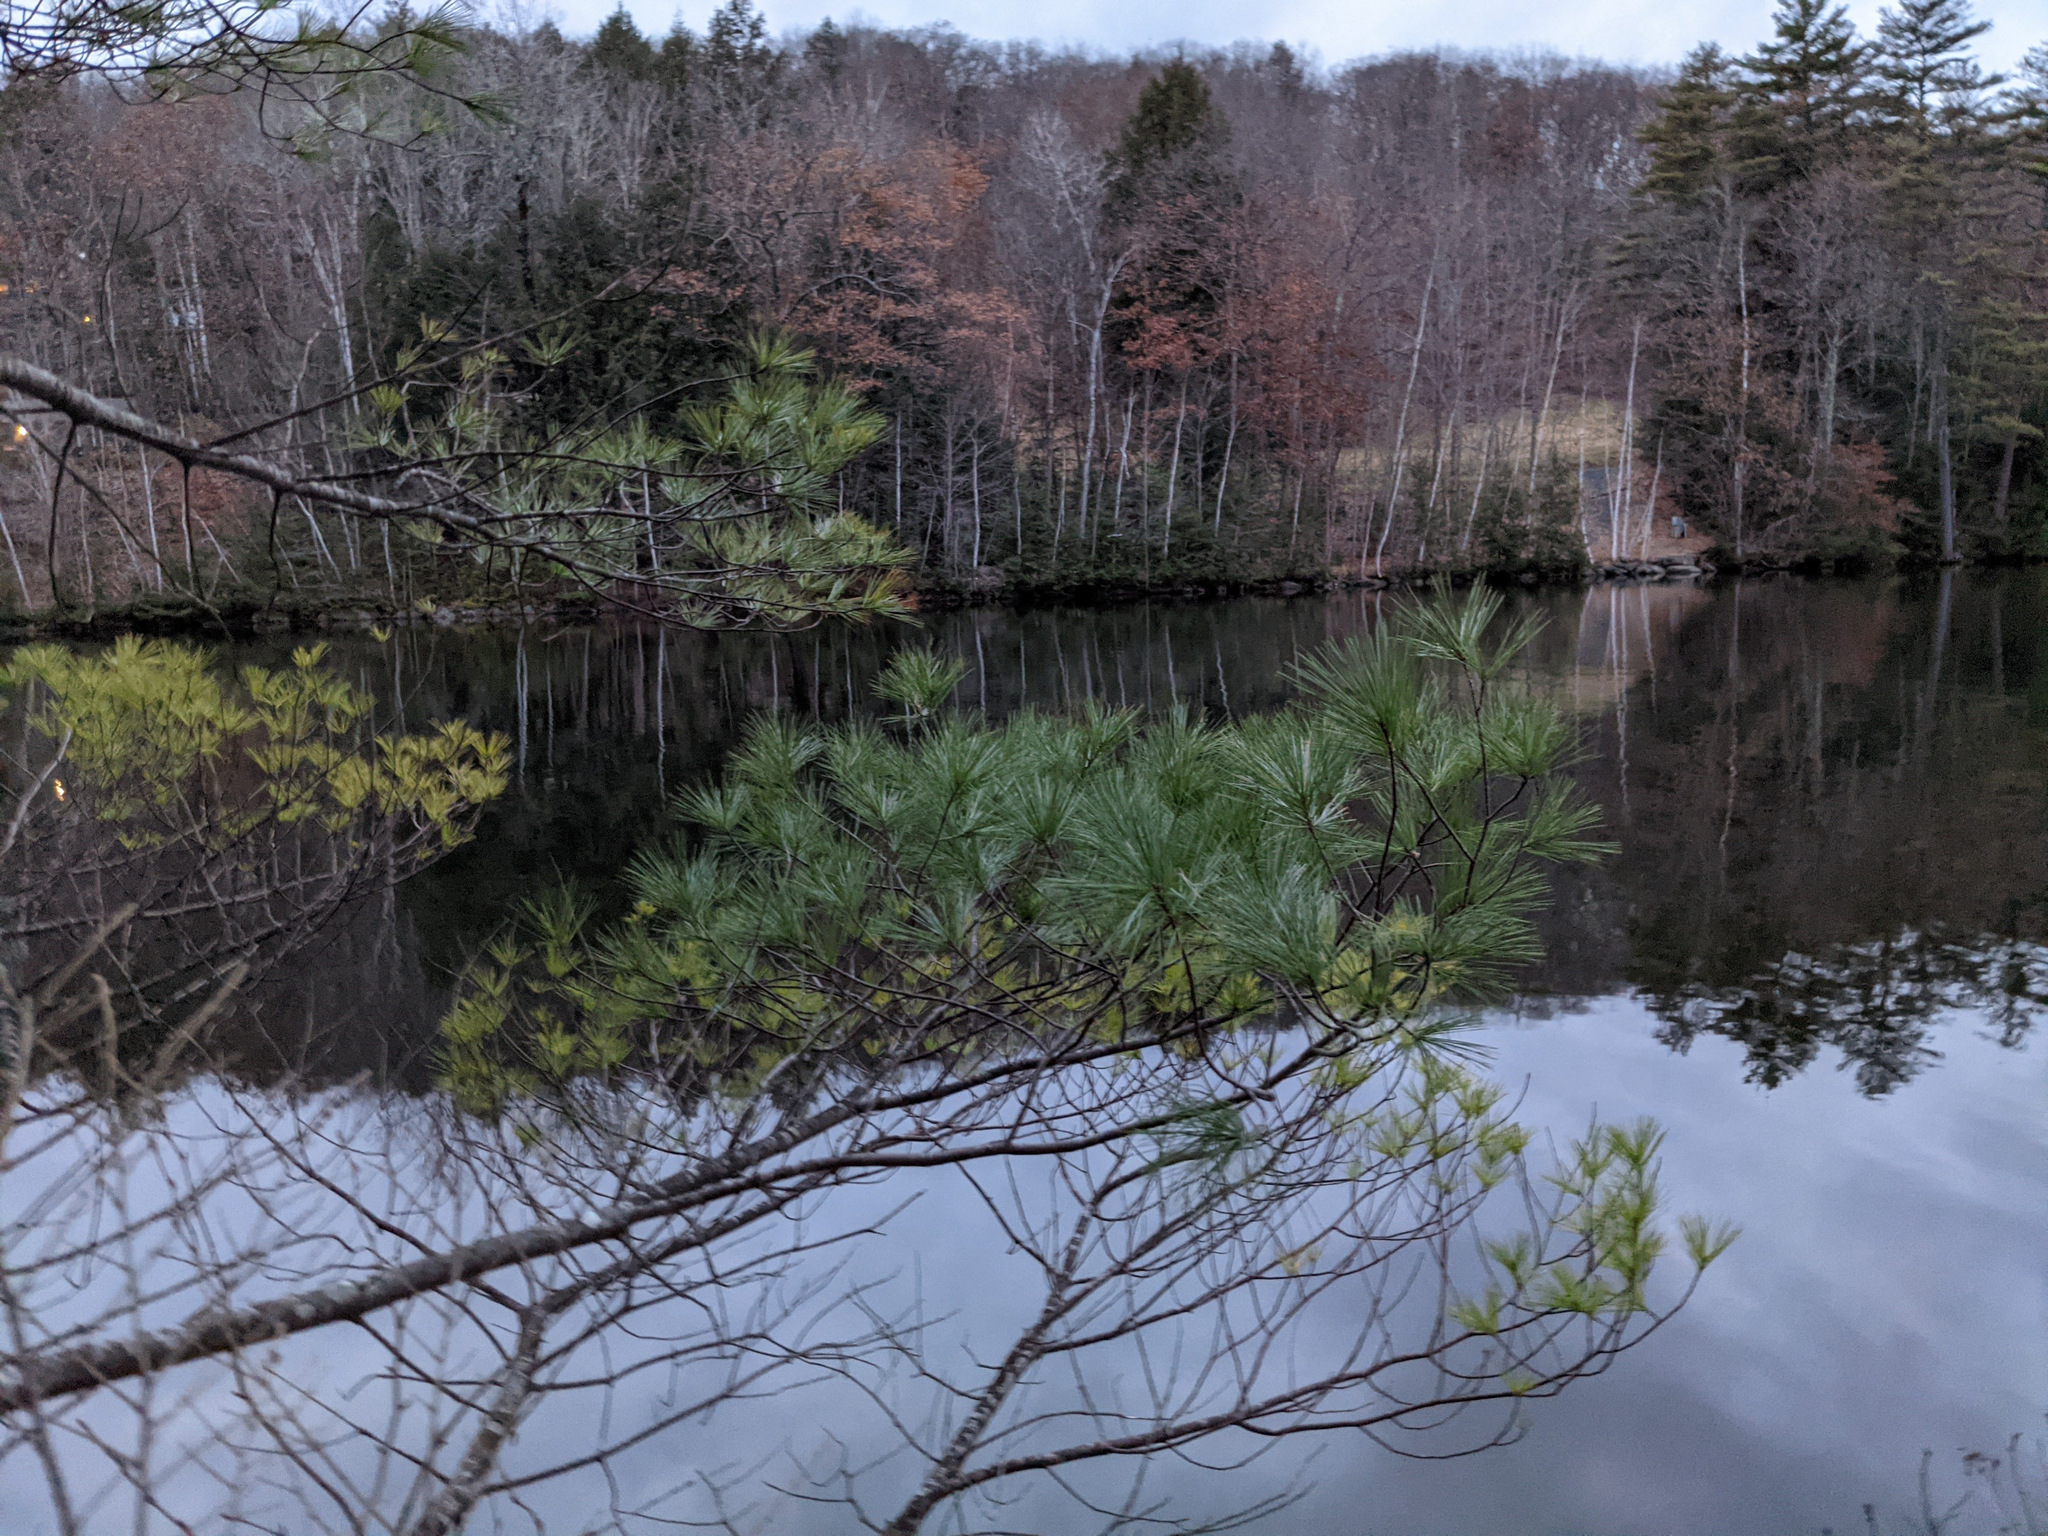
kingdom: Plantae
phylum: Tracheophyta
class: Pinopsida
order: Pinales
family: Pinaceae
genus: Pinus
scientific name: Pinus strobus
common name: Weymouth pine
